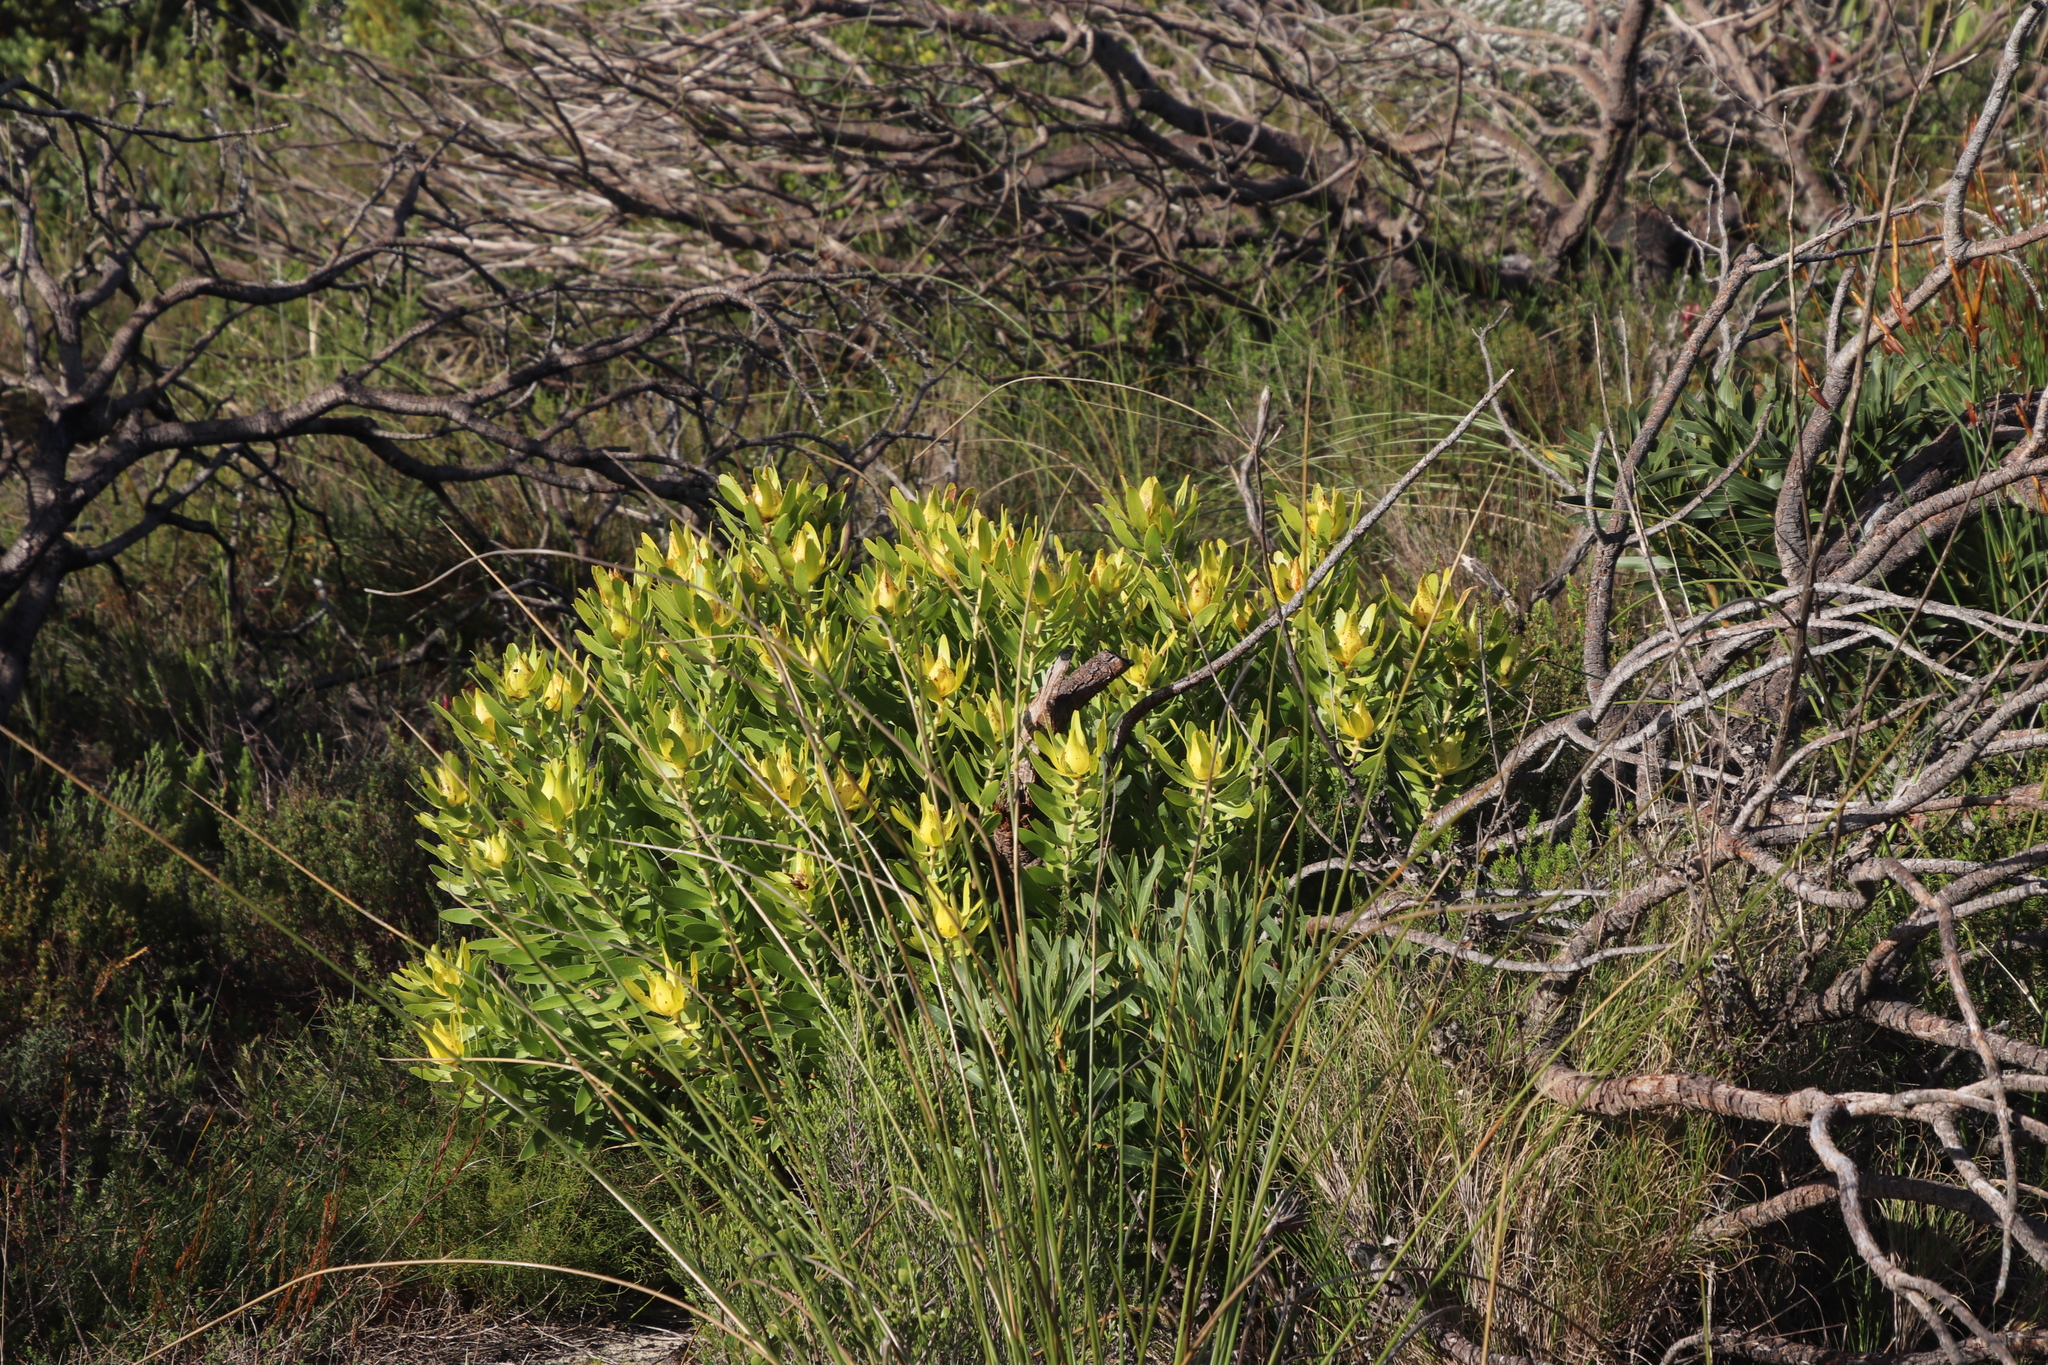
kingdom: Plantae
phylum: Tracheophyta
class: Magnoliopsida
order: Proteales
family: Proteaceae
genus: Leucadendron
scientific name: Leucadendron laureolum
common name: Golden sunshinebush
